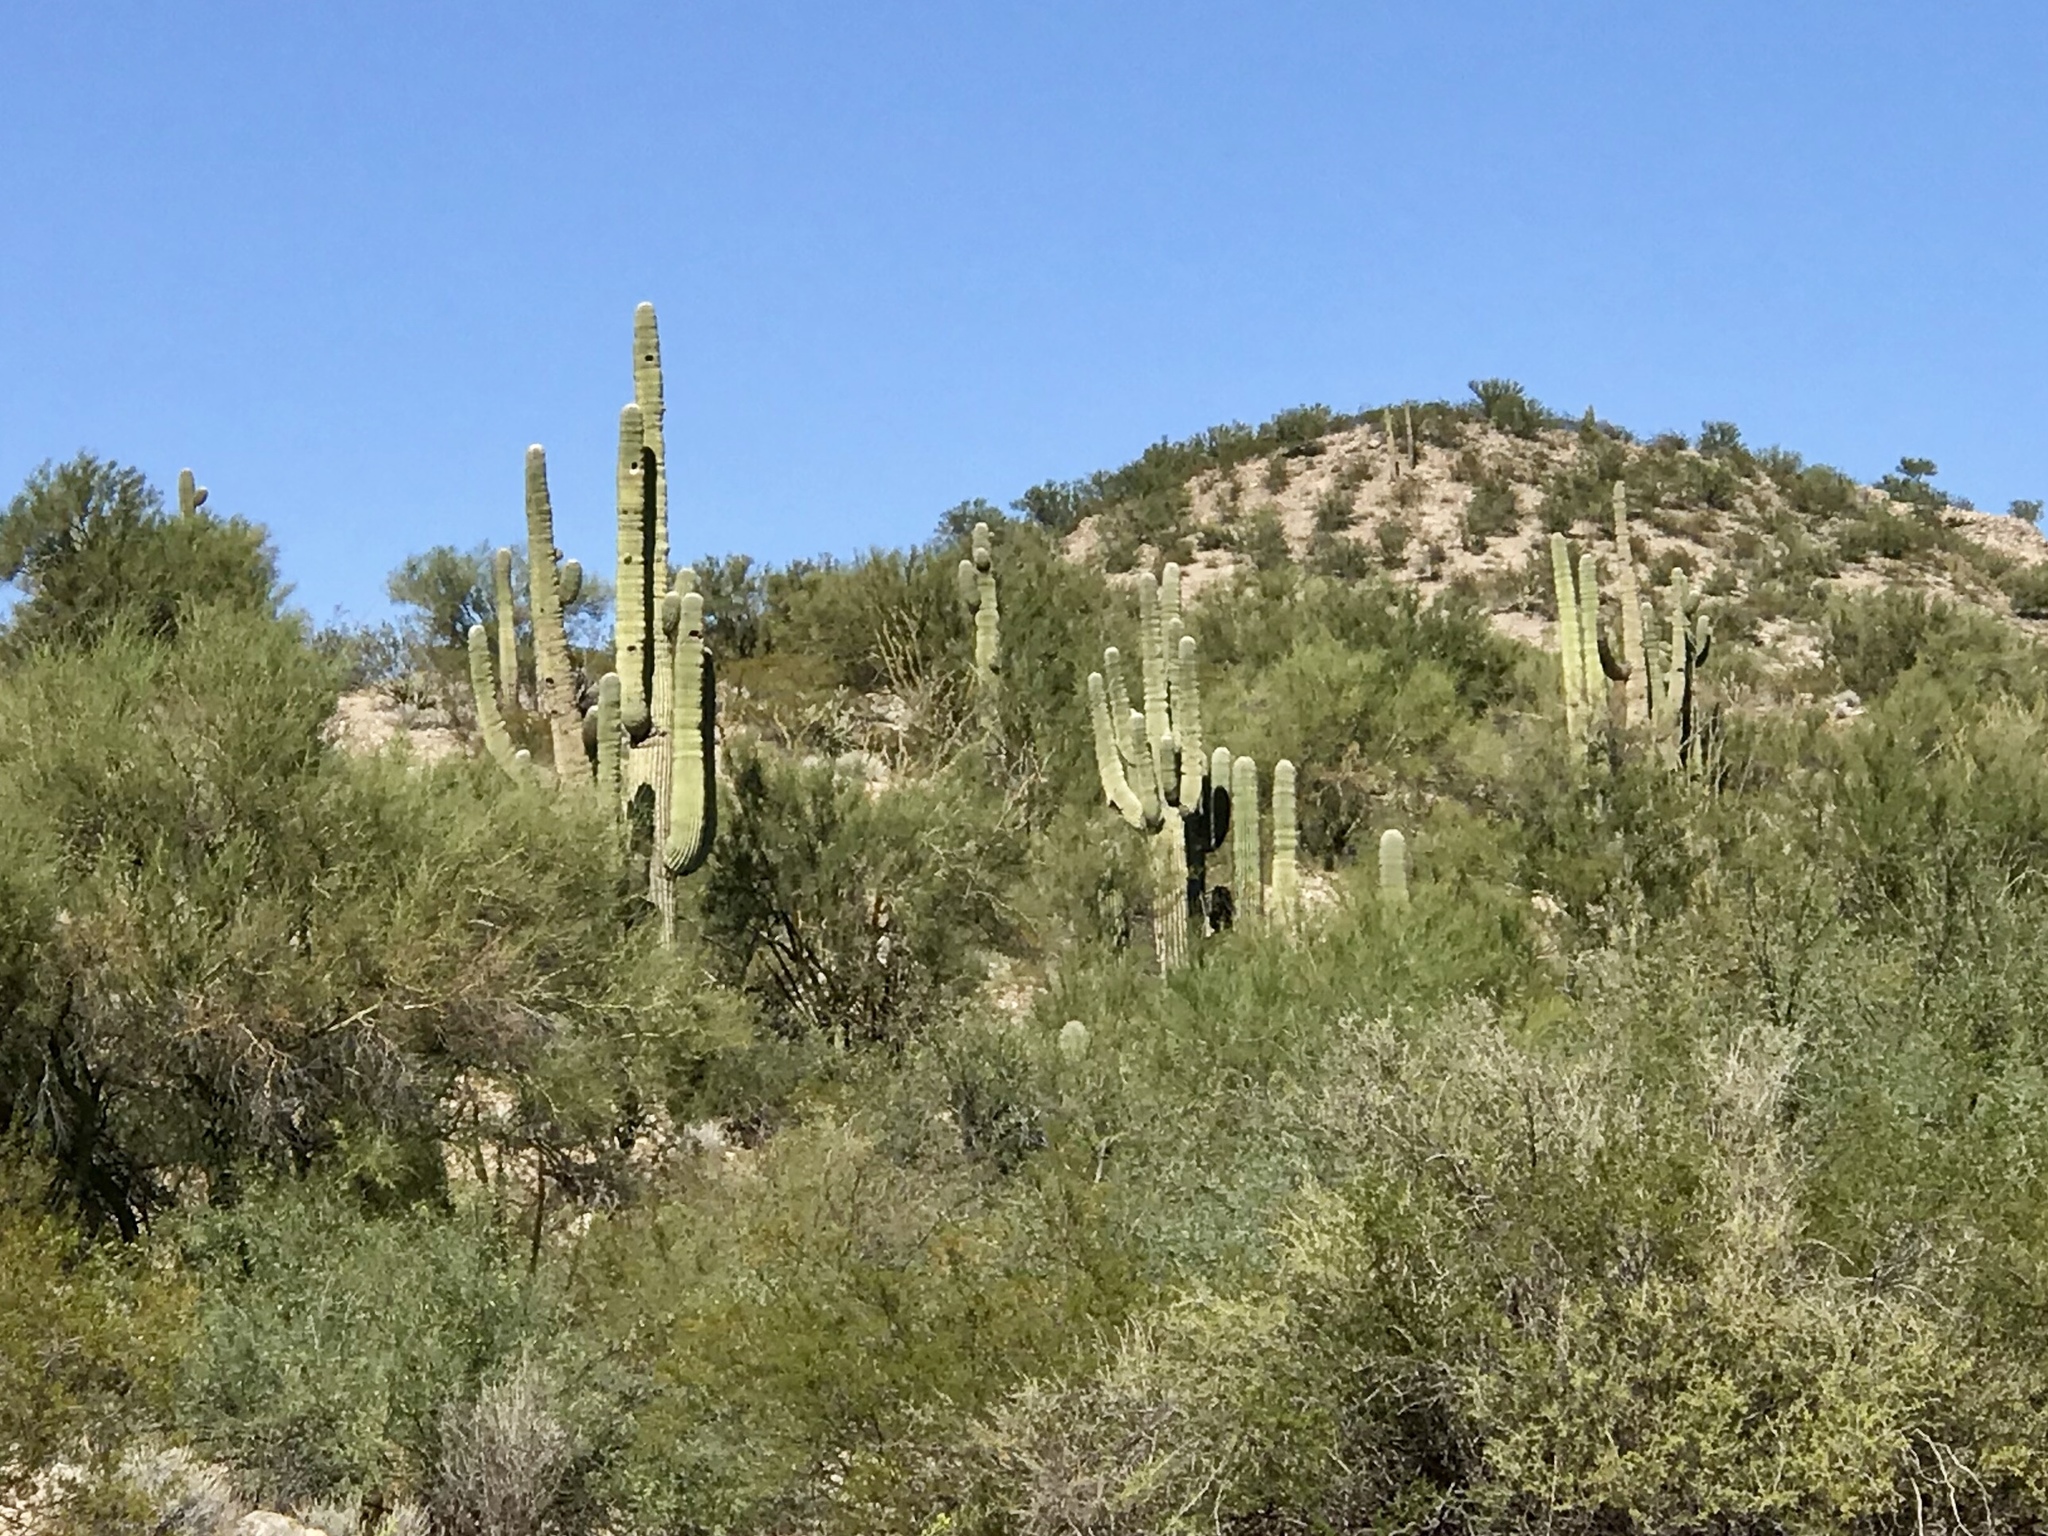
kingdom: Plantae
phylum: Tracheophyta
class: Magnoliopsida
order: Caryophyllales
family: Cactaceae
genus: Carnegiea
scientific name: Carnegiea gigantea
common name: Saguaro
